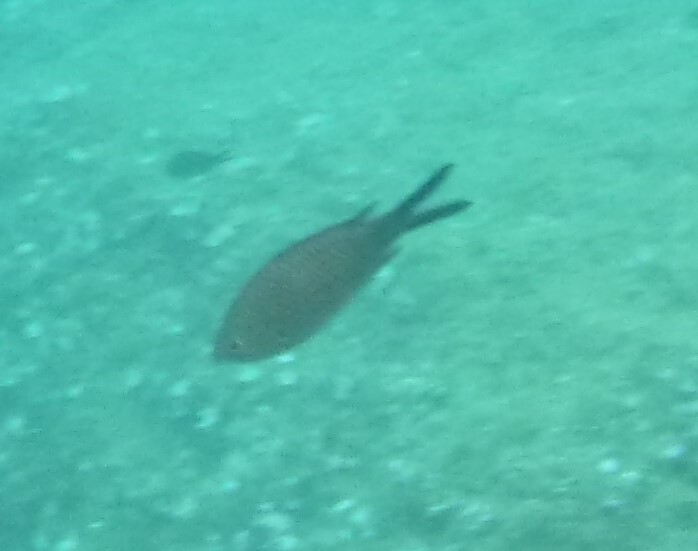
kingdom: Animalia
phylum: Chordata
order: Perciformes
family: Pomacentridae
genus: Chromis
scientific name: Chromis chromis
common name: Damselfish
